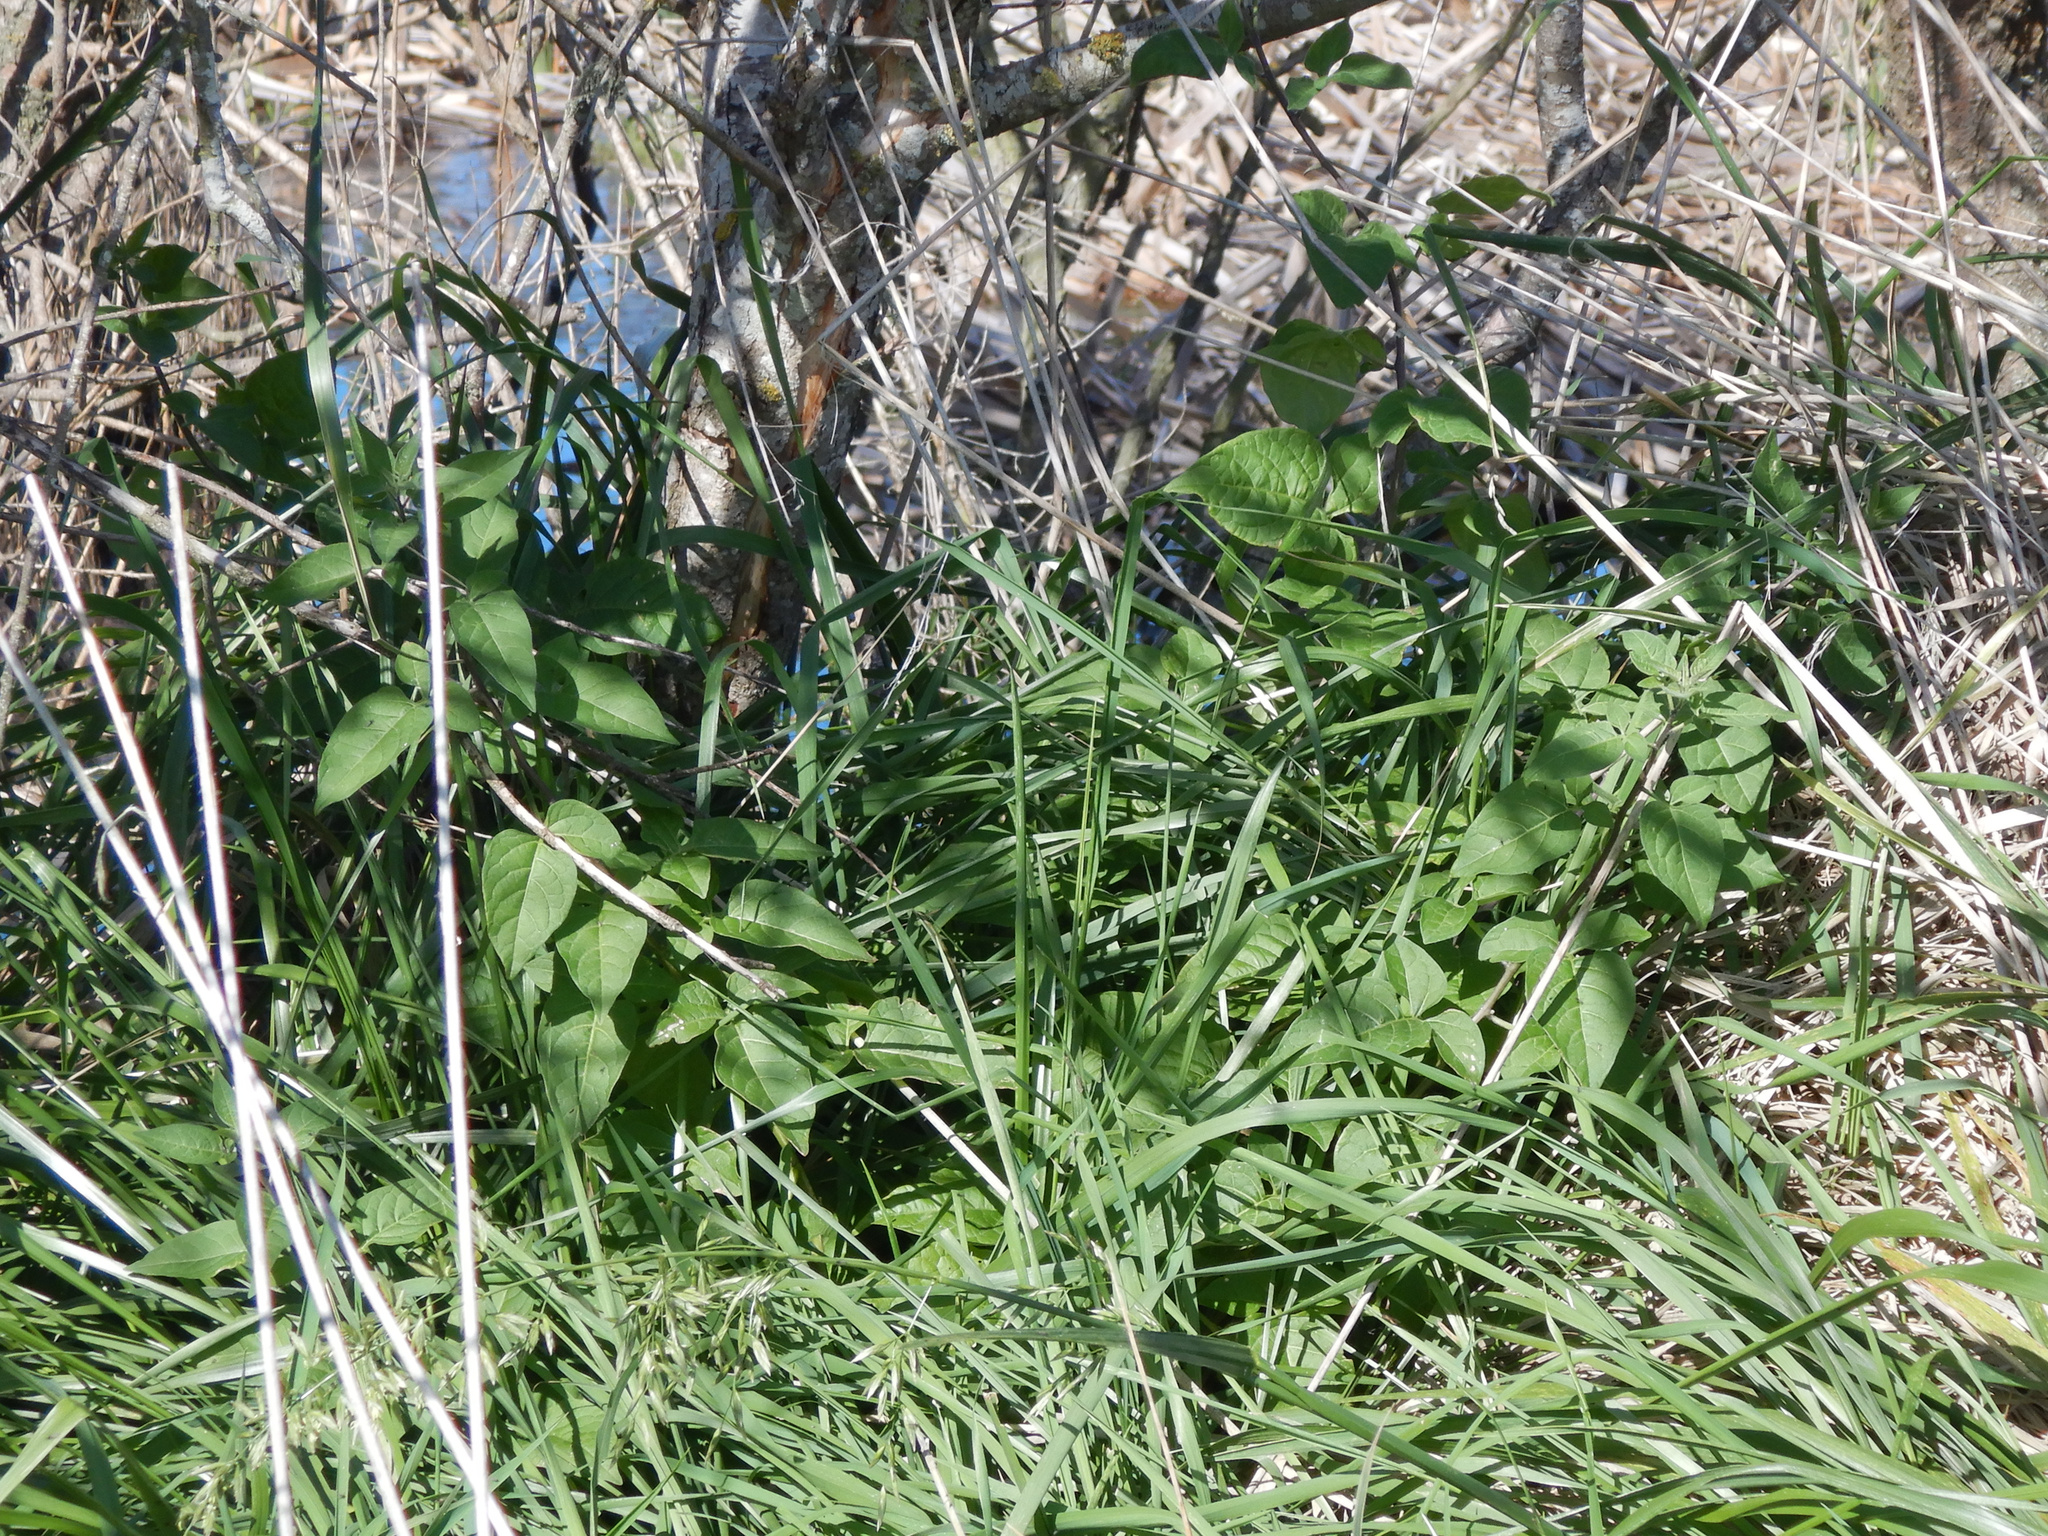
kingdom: Plantae
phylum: Tracheophyta
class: Magnoliopsida
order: Solanales
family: Solanaceae
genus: Solanum
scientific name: Solanum dulcamara
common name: Climbing nightshade
